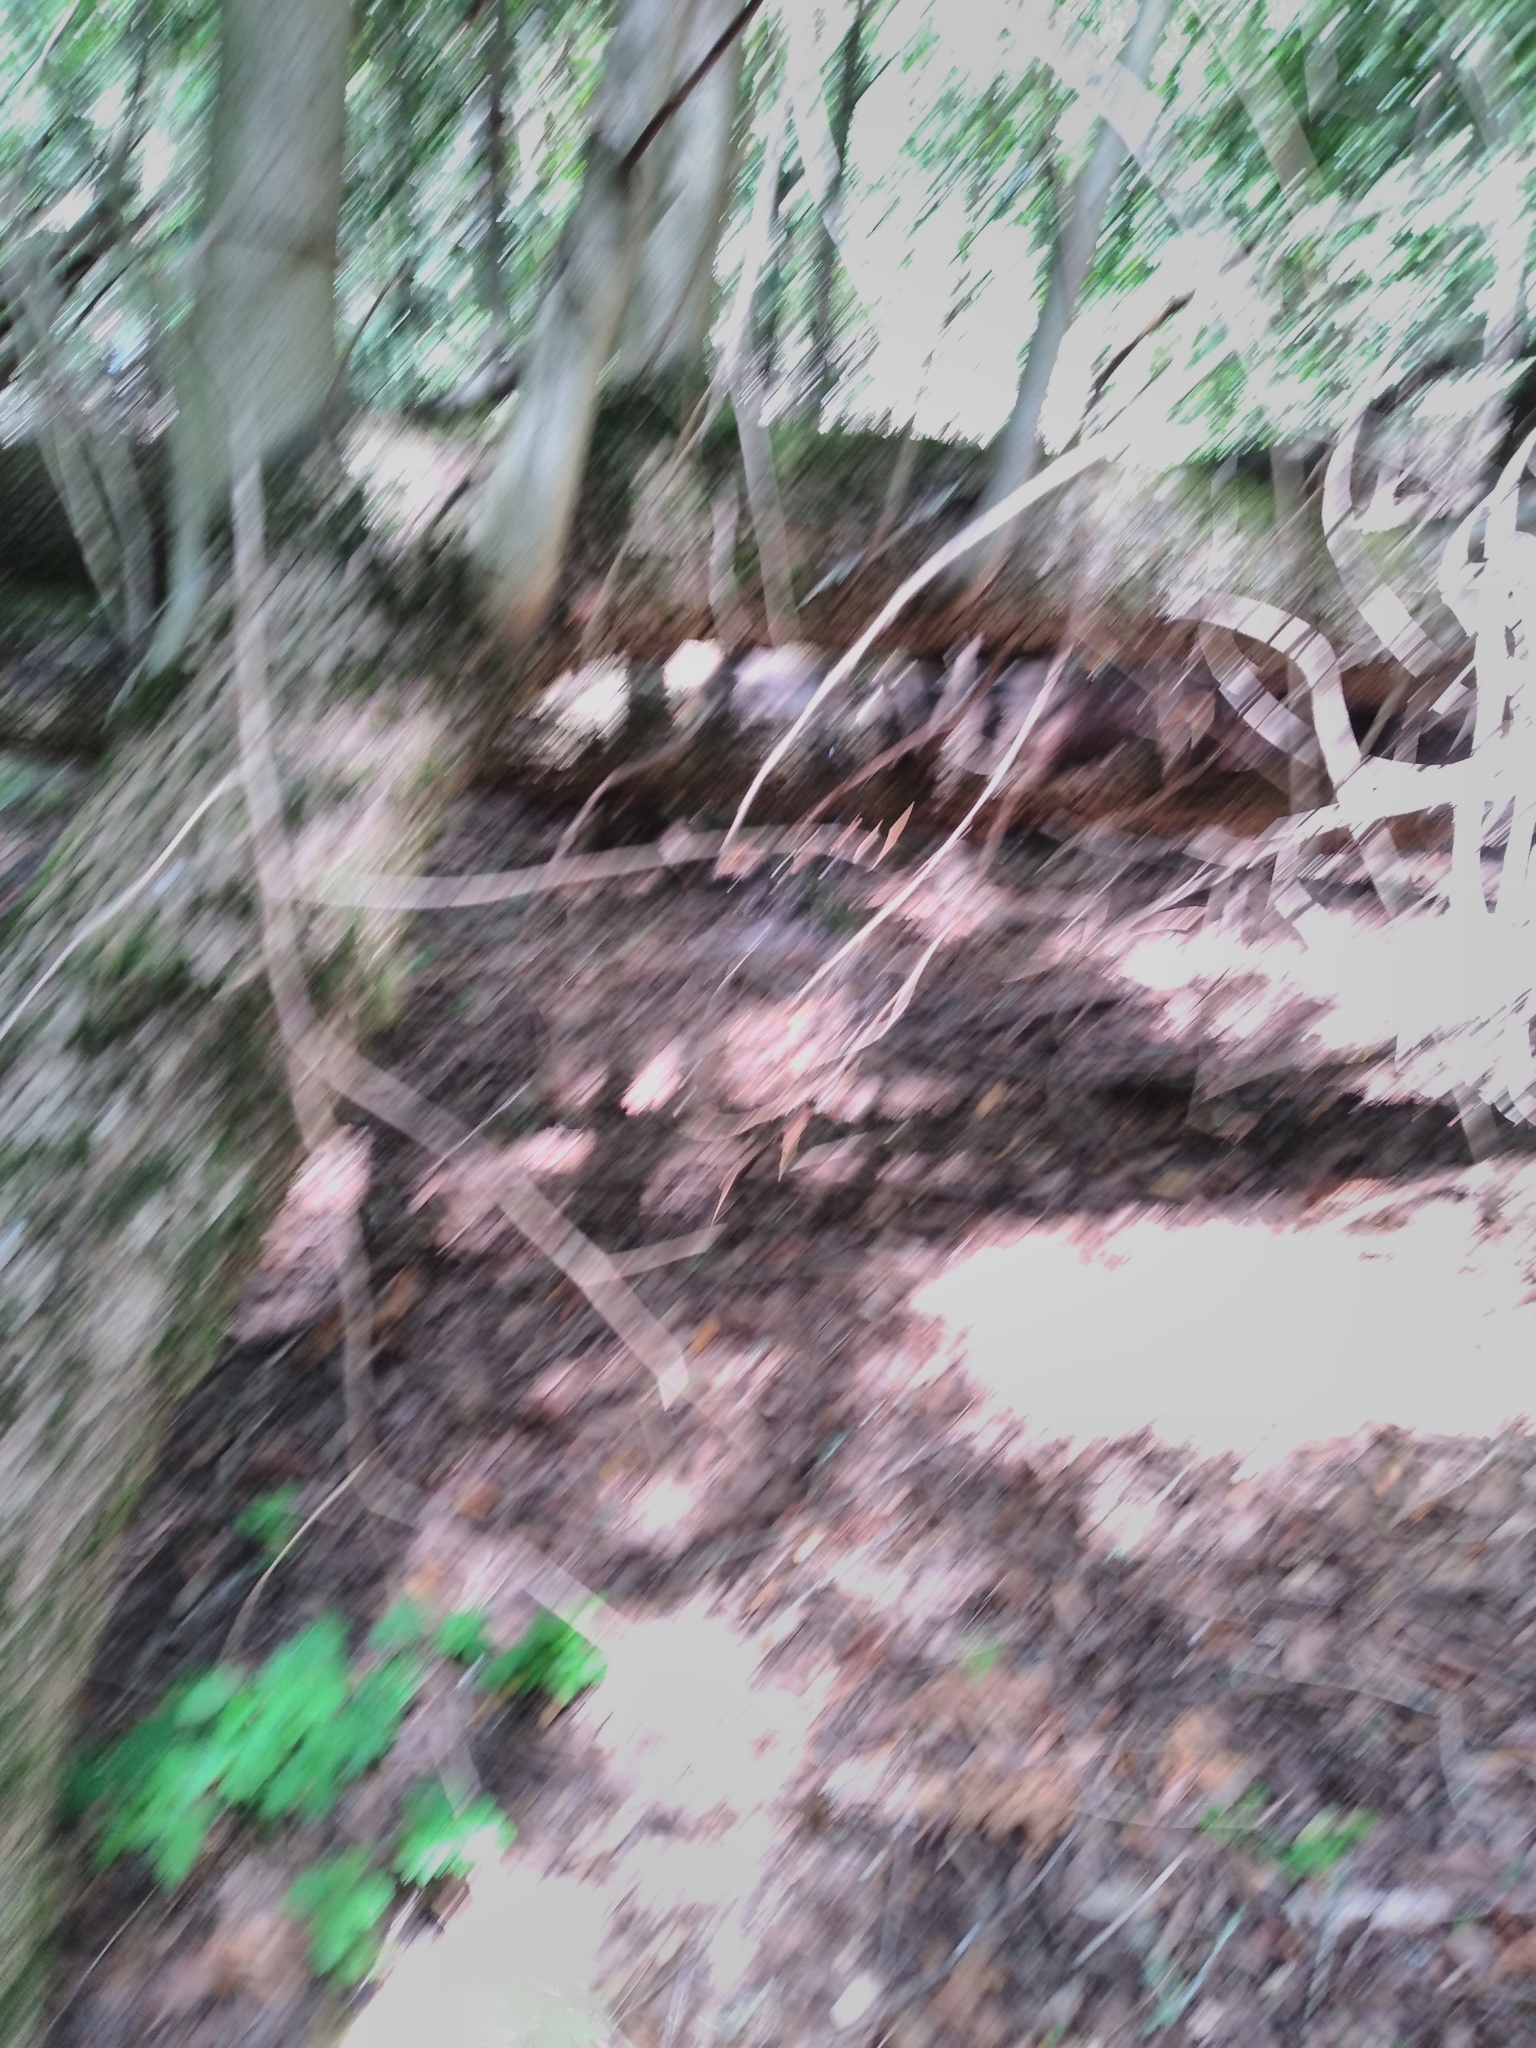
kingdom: Plantae
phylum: Tracheophyta
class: Magnoliopsida
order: Laurales
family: Lauraceae
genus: Umbellularia
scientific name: Umbellularia californica
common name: California bay
